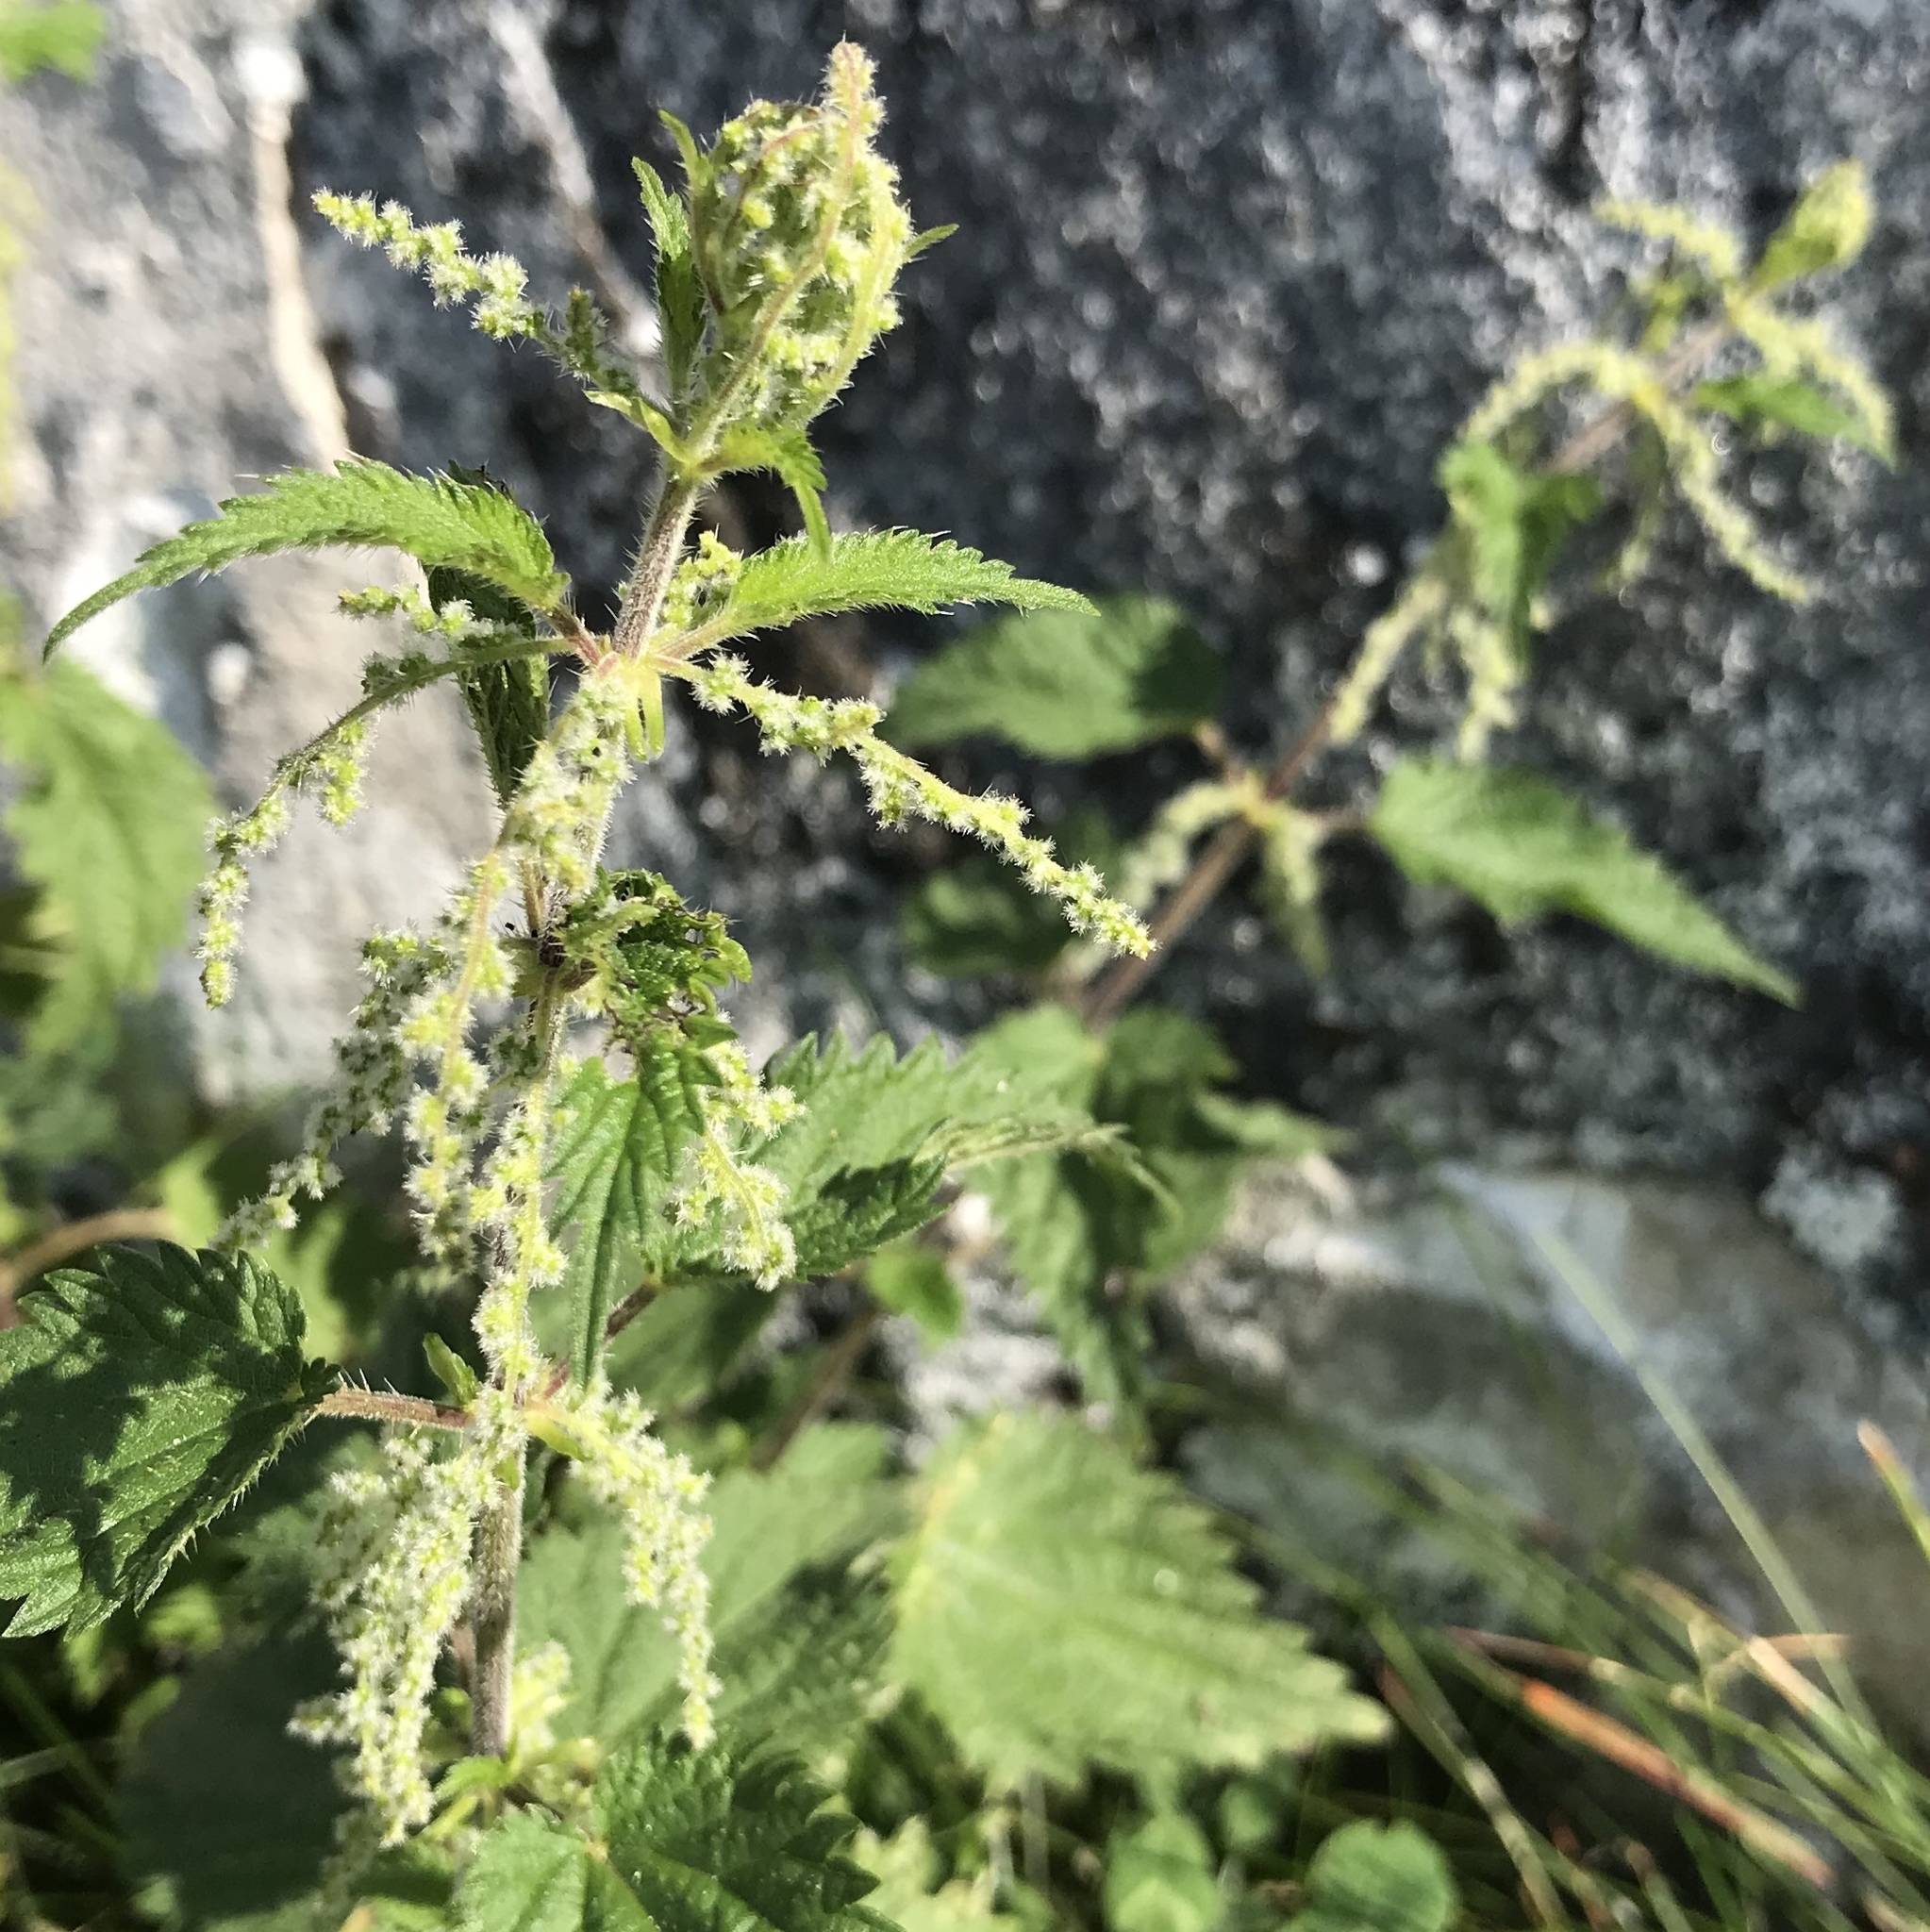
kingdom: Plantae
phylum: Tracheophyta
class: Magnoliopsida
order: Rosales
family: Urticaceae
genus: Urtica
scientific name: Urtica dioica
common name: Common nettle
